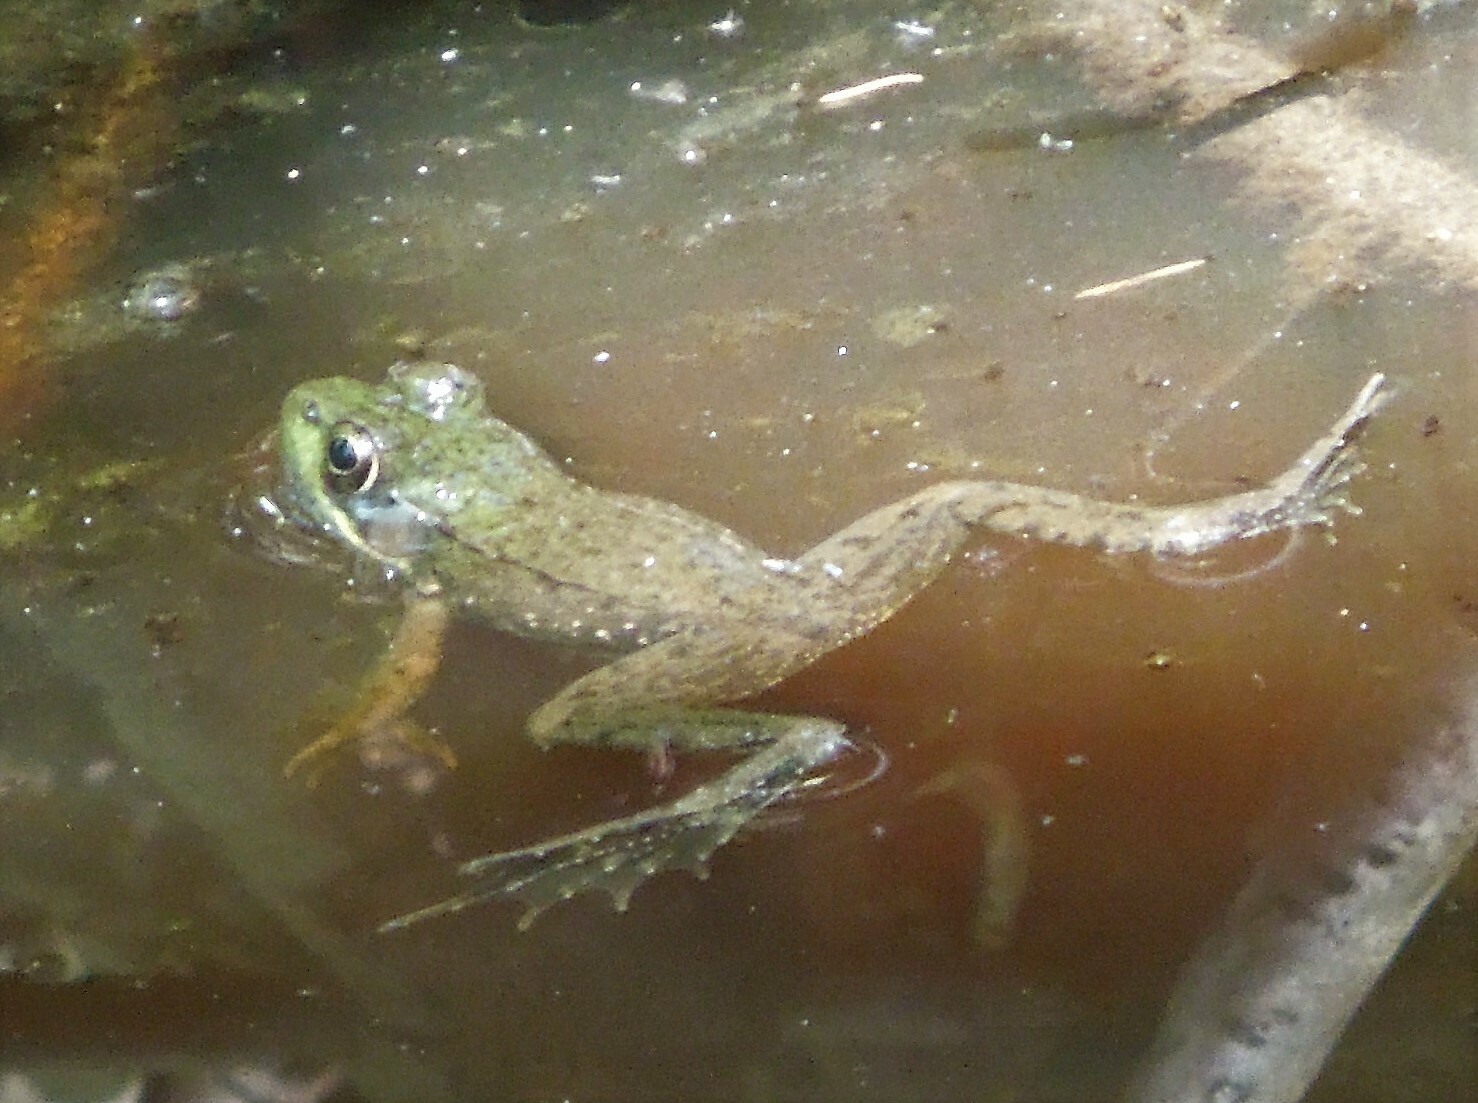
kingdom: Animalia
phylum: Chordata
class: Amphibia
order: Anura
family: Ranidae
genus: Lithobates
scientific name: Lithobates clamitans
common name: Green frog
